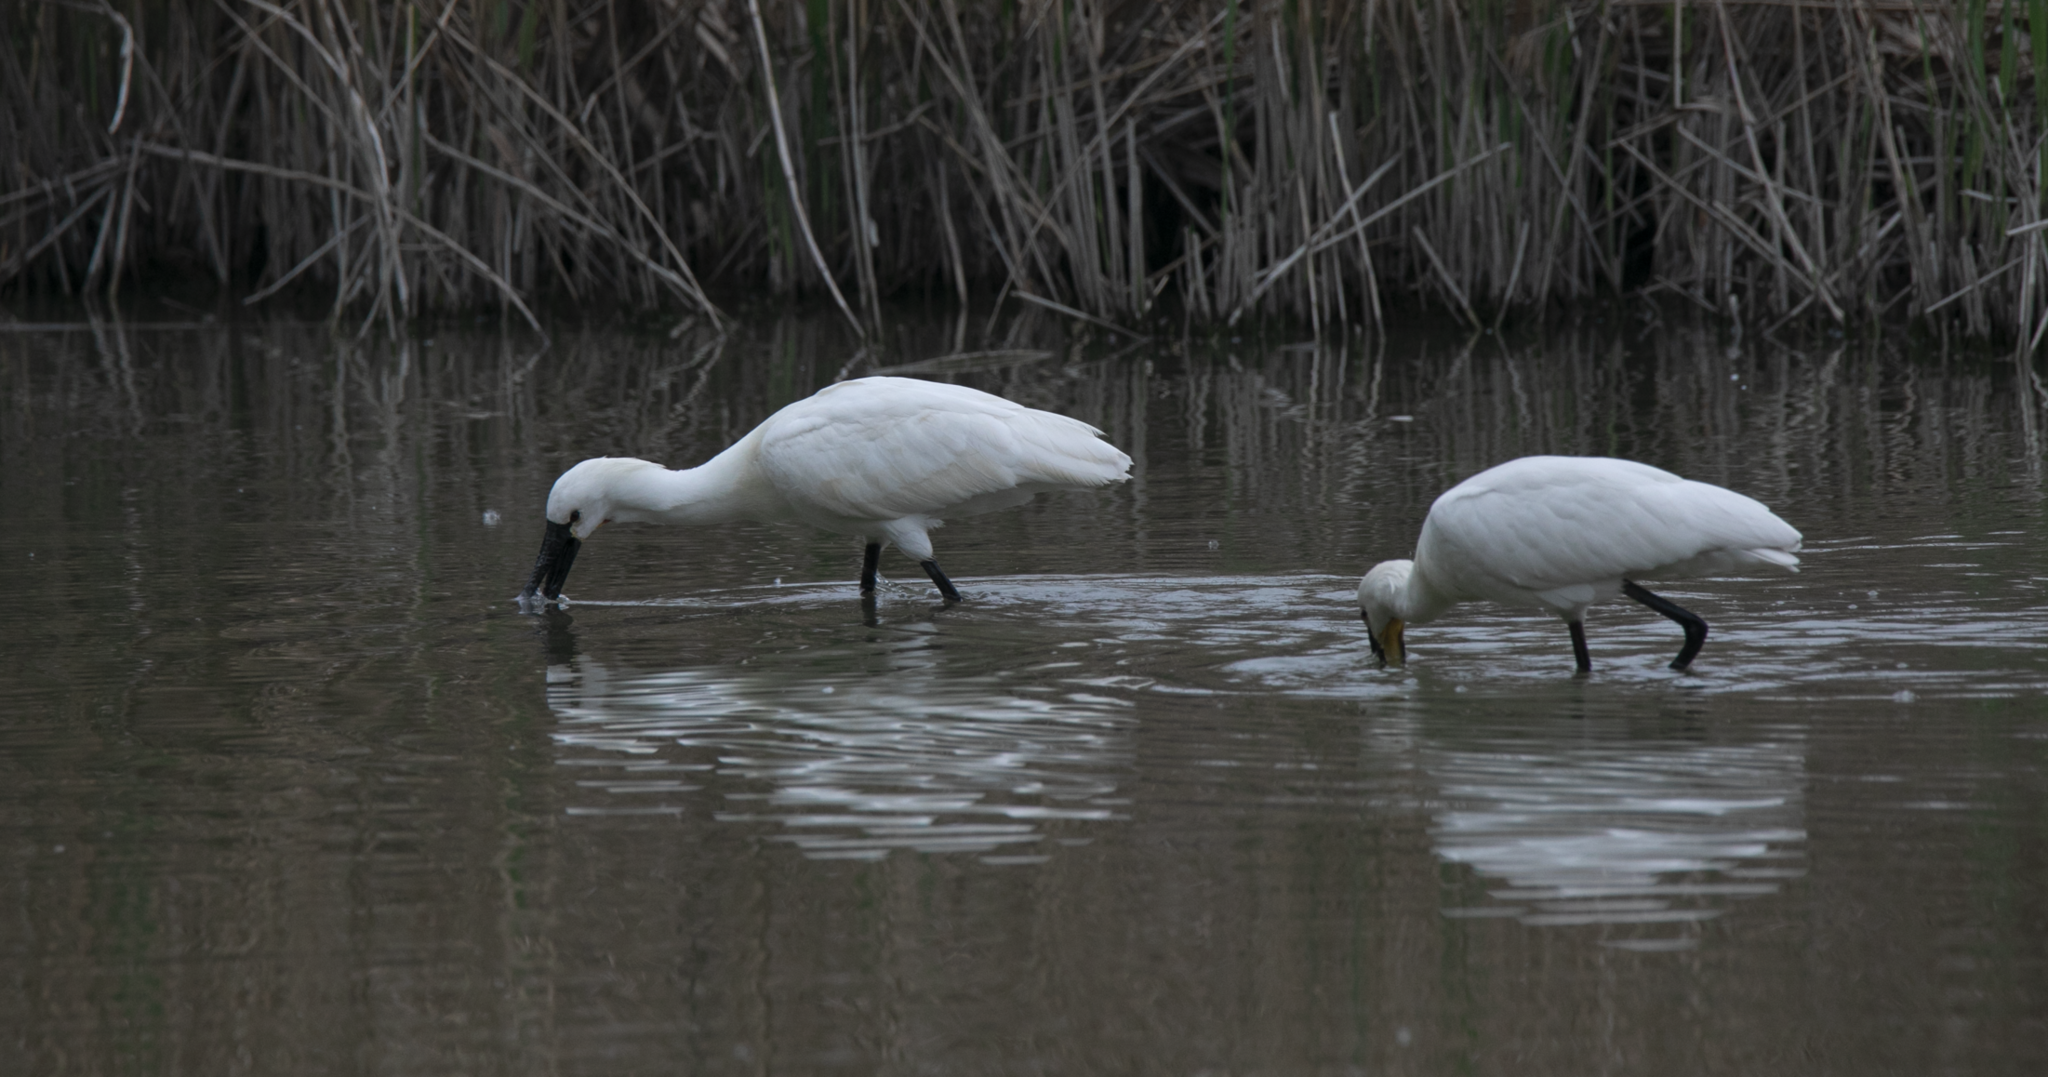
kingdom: Animalia
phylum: Chordata
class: Aves
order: Pelecaniformes
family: Threskiornithidae
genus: Platalea
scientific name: Platalea leucorodia
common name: Eurasian spoonbill
